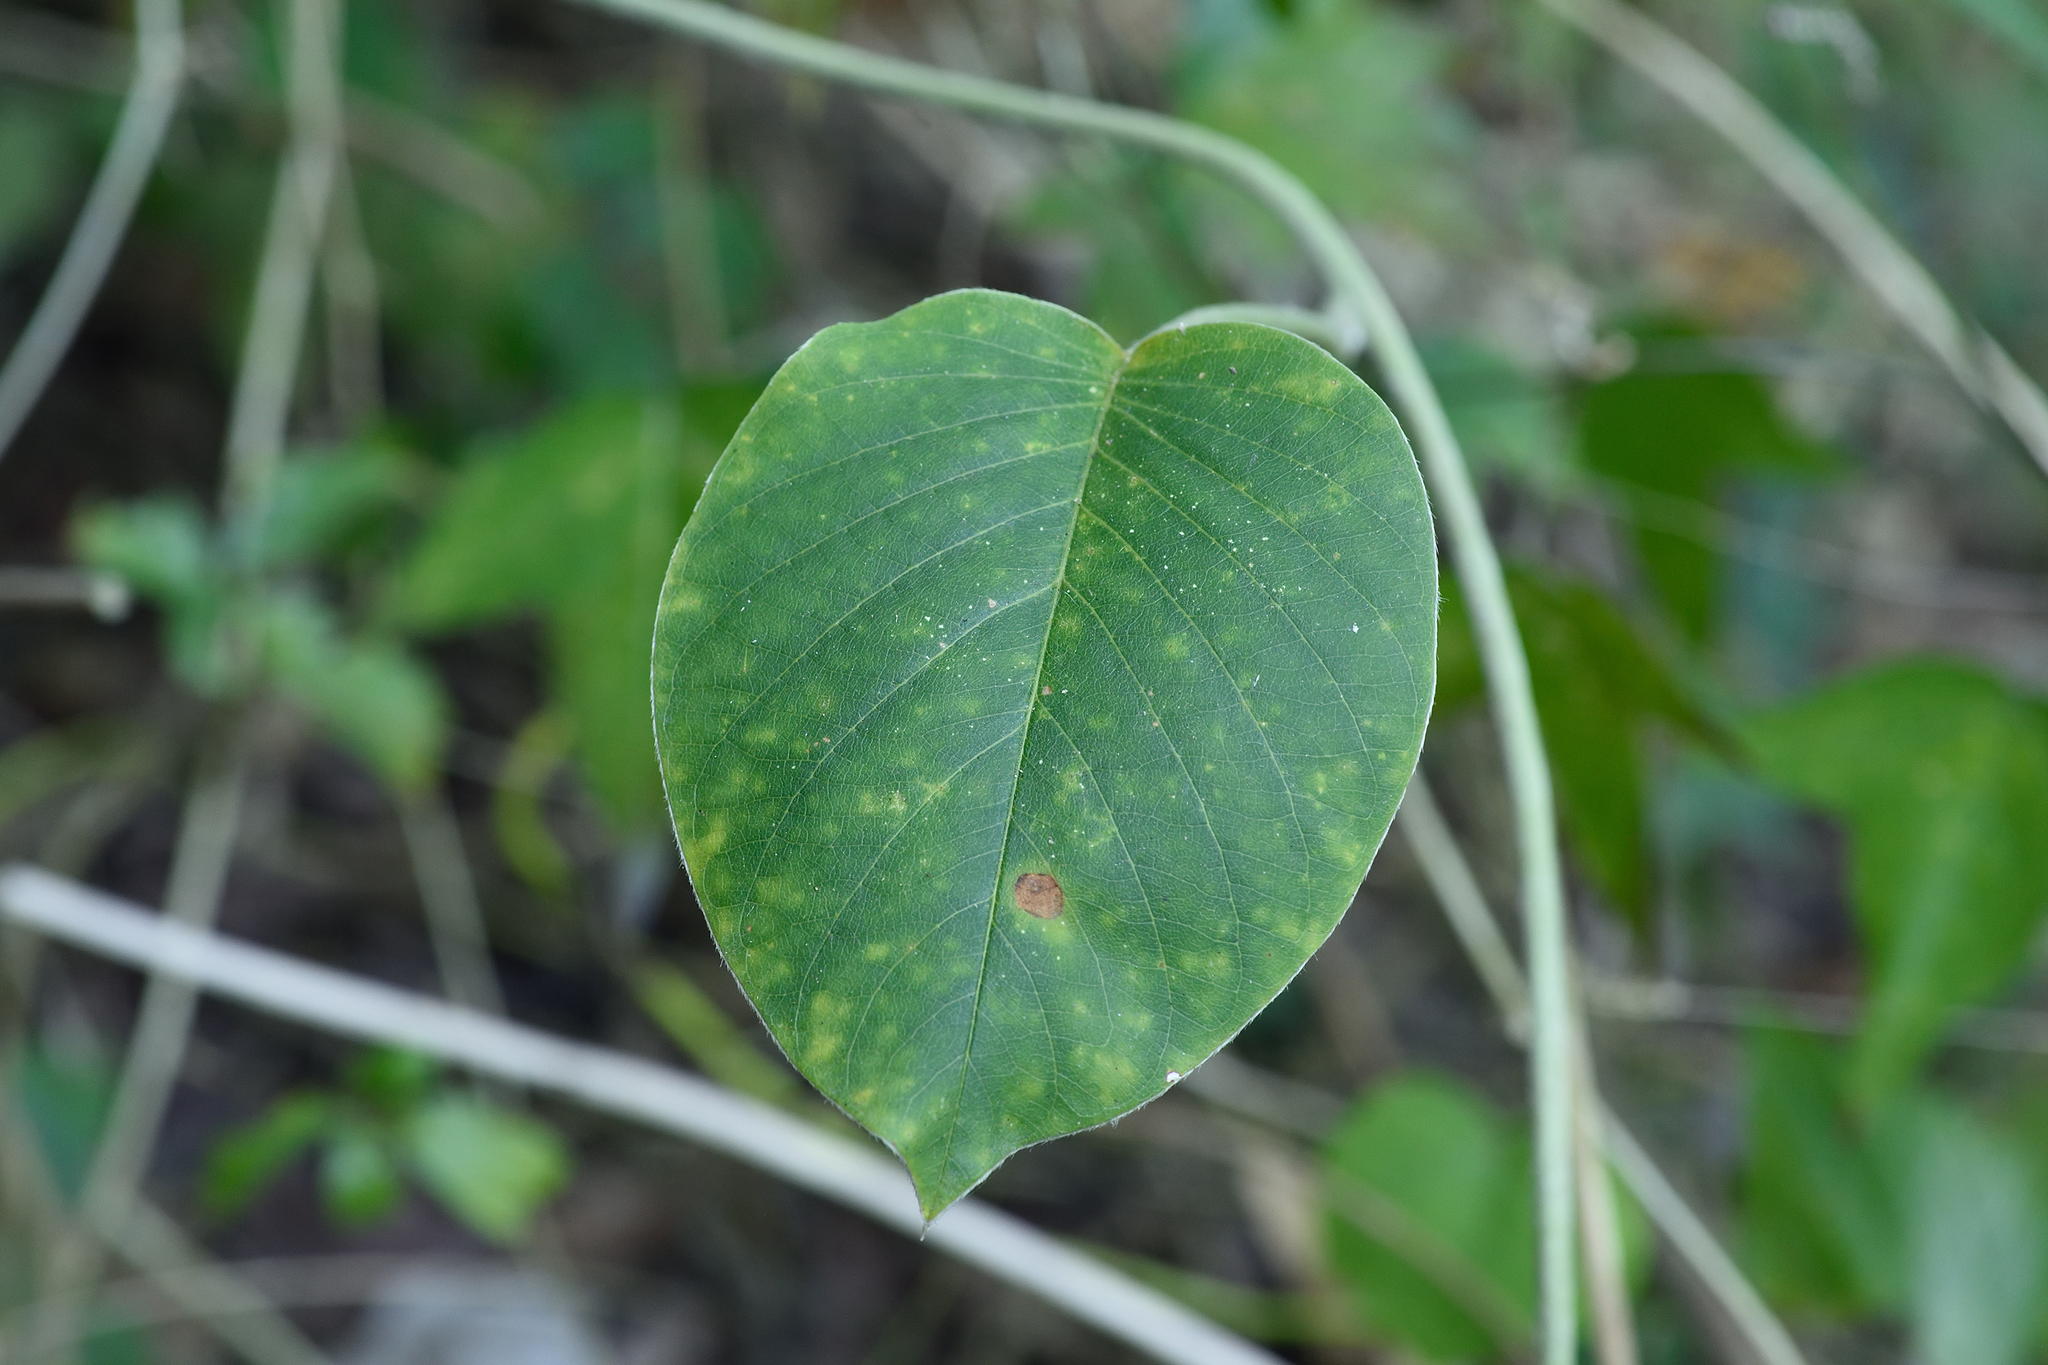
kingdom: Plantae
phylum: Tracheophyta
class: Magnoliopsida
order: Solanales
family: Convolvulaceae
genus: Argyreia
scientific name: Argyreia formosana
